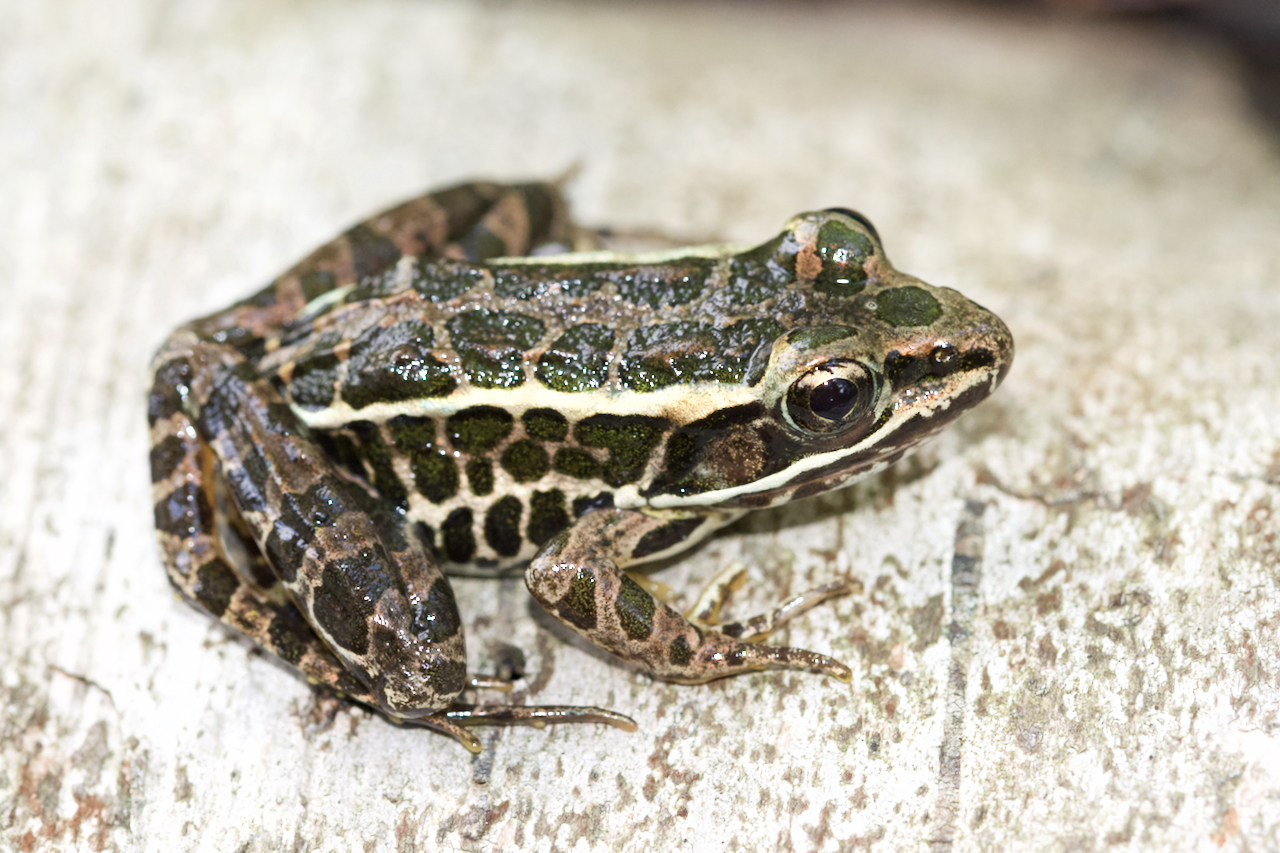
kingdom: Animalia
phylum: Chordata
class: Amphibia
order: Anura
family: Ranidae
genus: Lithobates
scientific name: Lithobates palustris
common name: Pickerel frog
